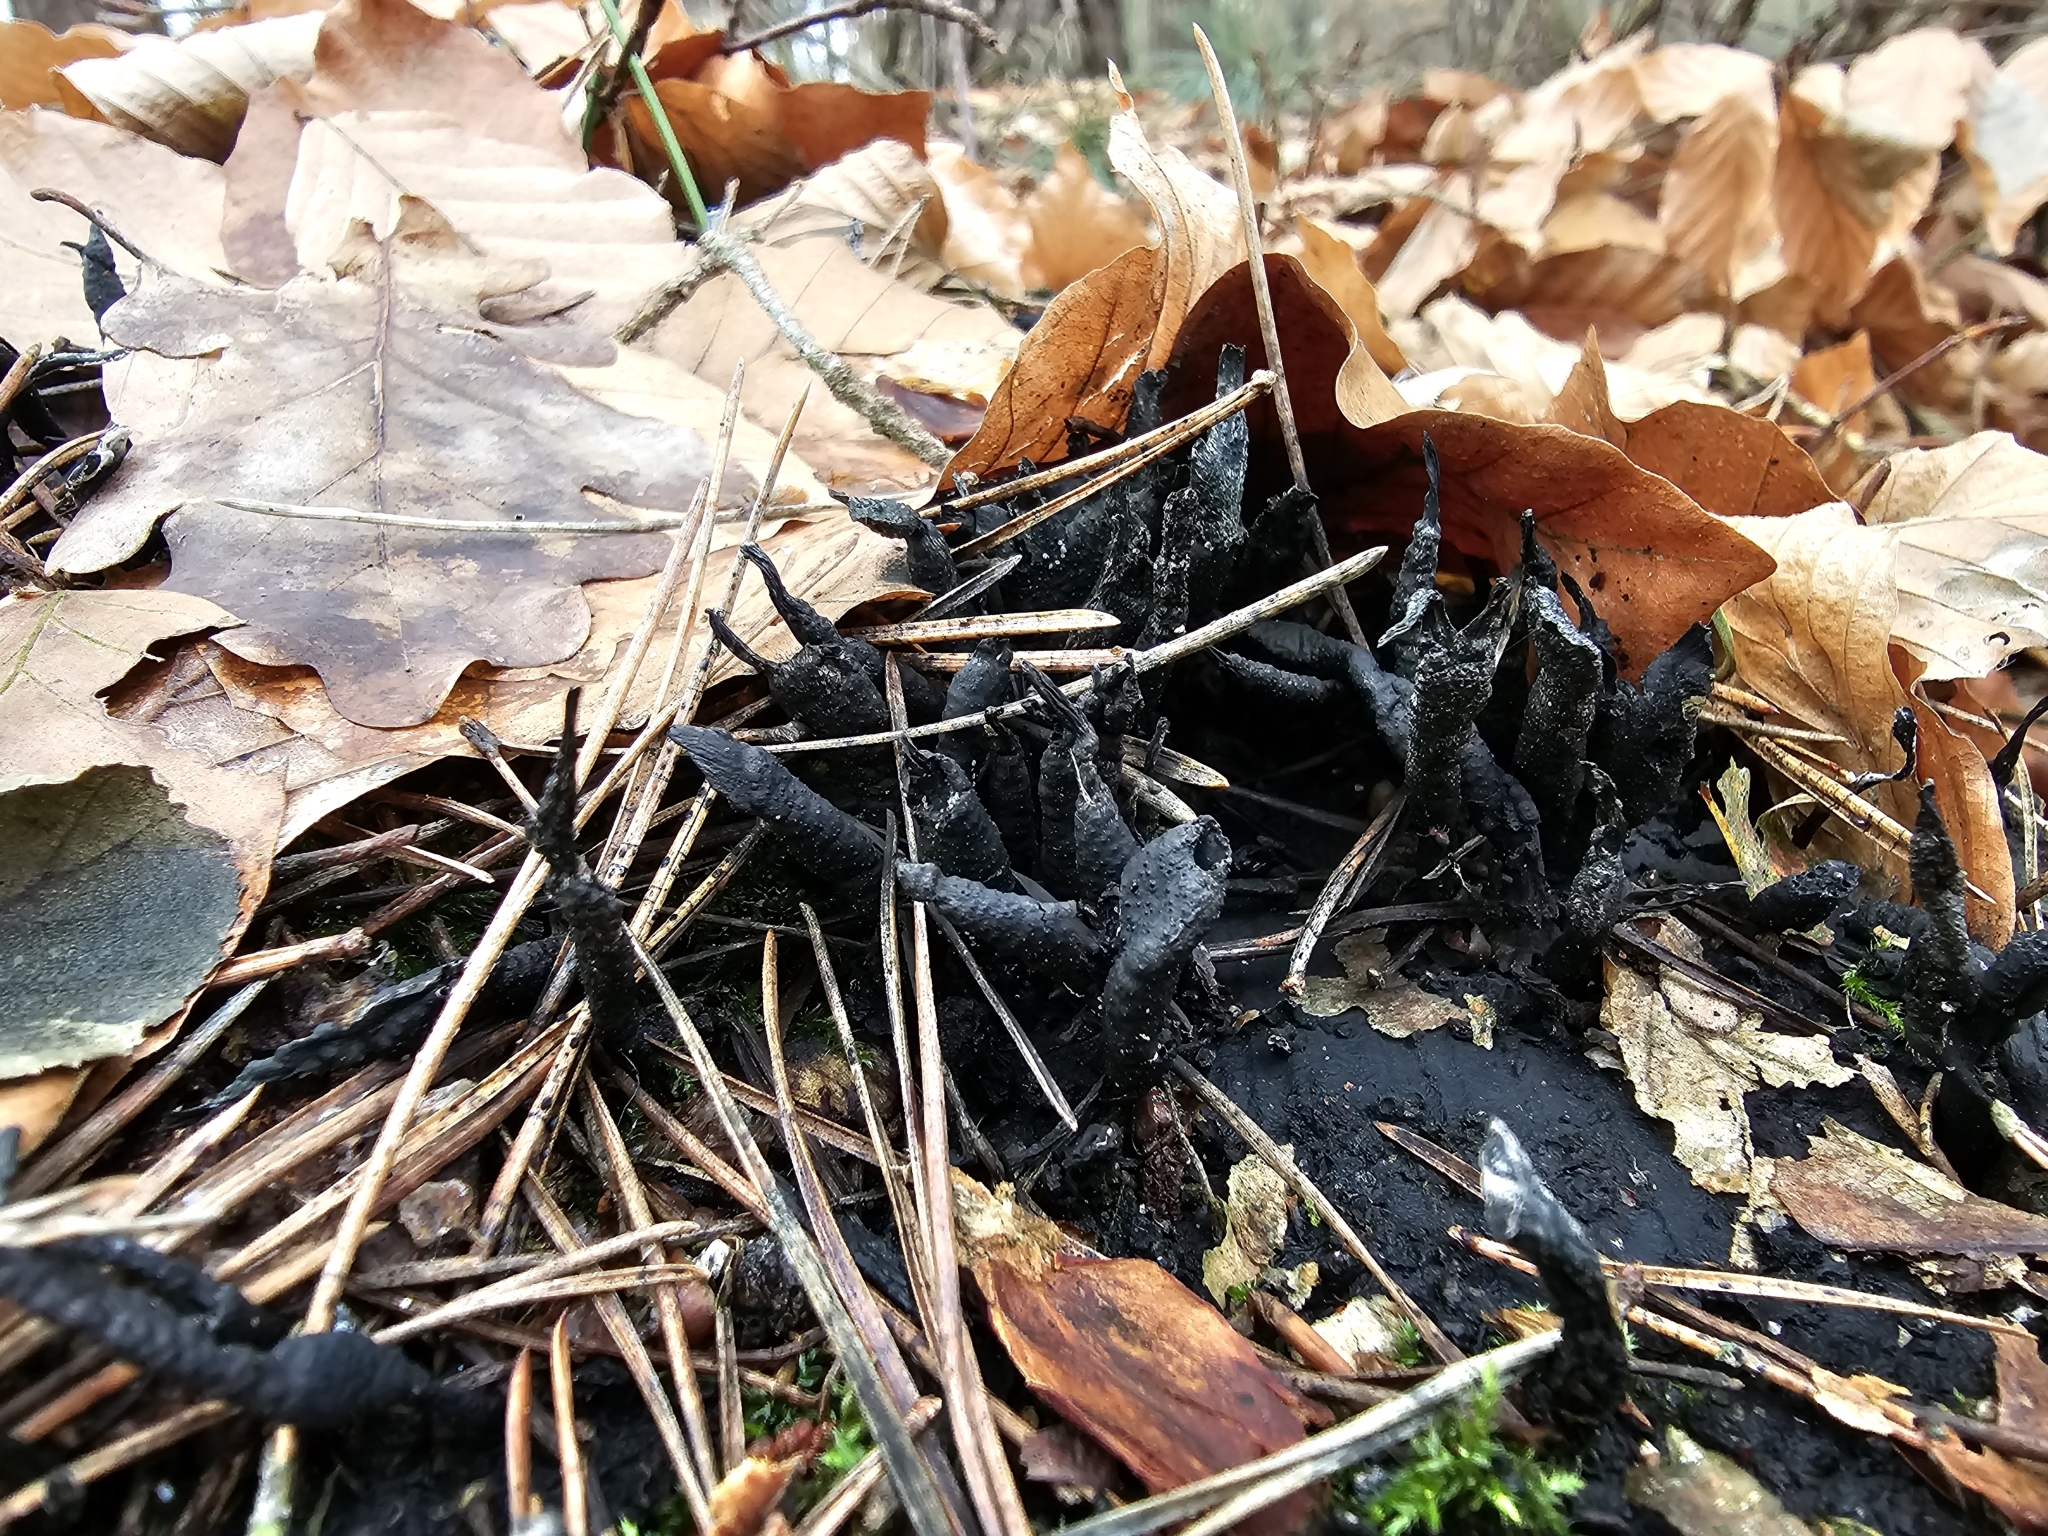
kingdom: Fungi
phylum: Ascomycota
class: Sordariomycetes
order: Xylariales
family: Xylariaceae
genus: Xylaria
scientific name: Xylaria hypoxylon
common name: Candle-snuff fungus
